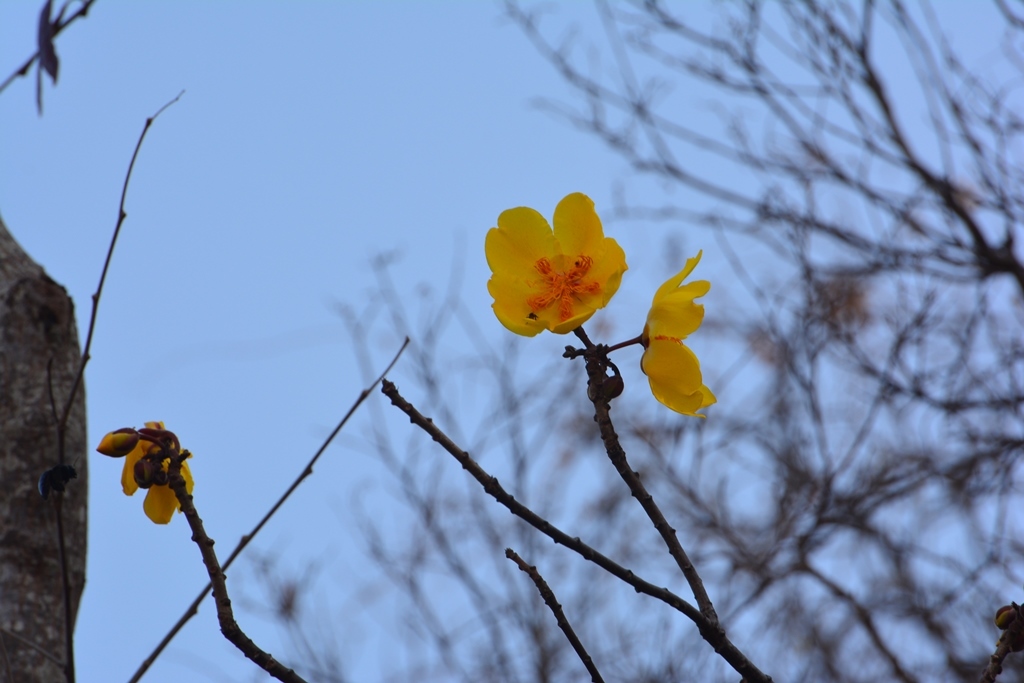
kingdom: Plantae
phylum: Tracheophyta
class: Magnoliopsida
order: Malvales
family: Cochlospermaceae
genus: Cochlospermum
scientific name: Cochlospermum vitifolium
